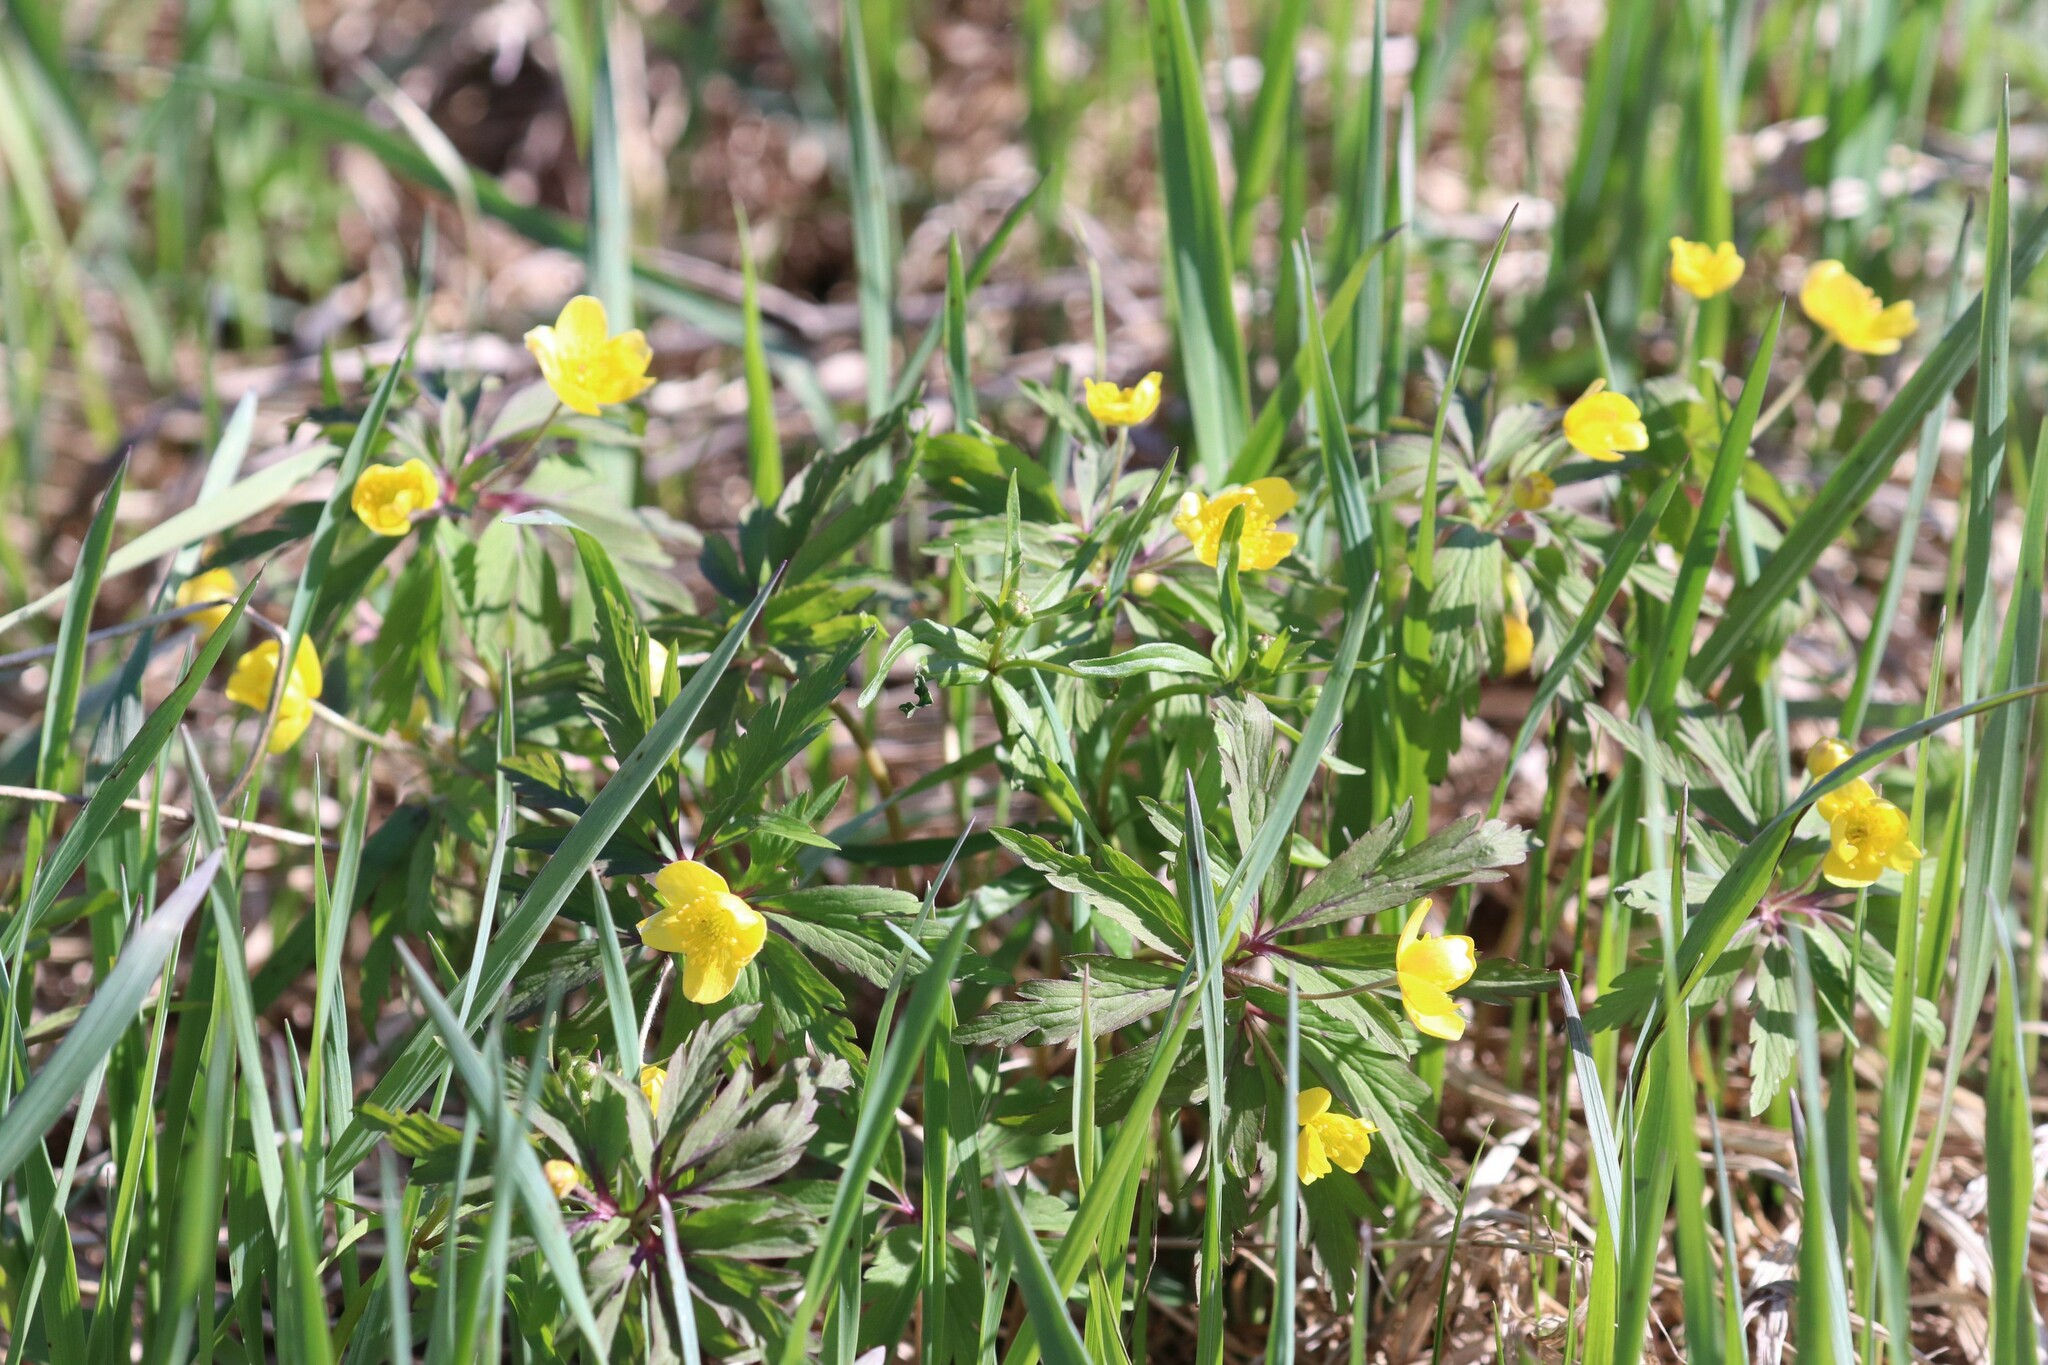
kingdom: Plantae
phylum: Tracheophyta
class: Magnoliopsida
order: Ranunculales
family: Ranunculaceae
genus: Anemone
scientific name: Anemone ranunculoides
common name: Yellow anemone
